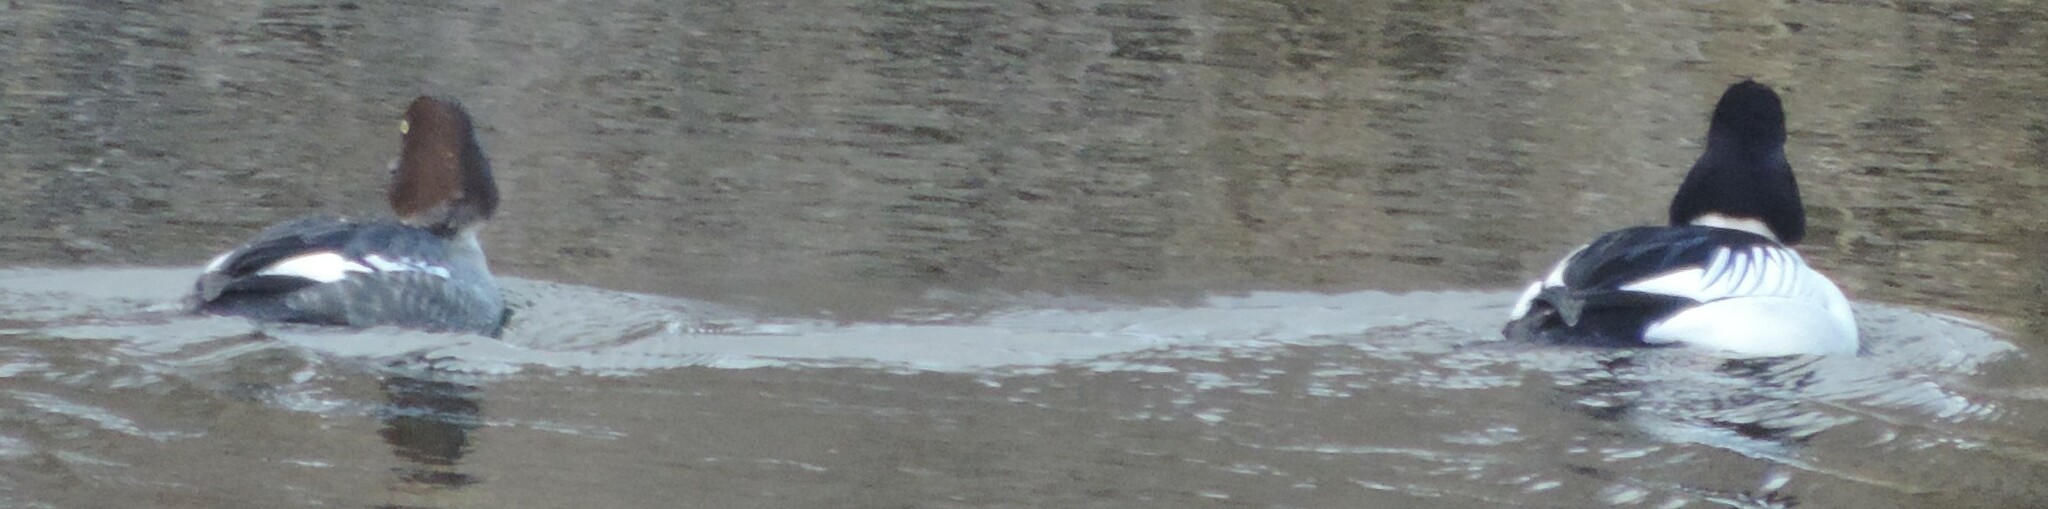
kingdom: Animalia
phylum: Chordata
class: Aves
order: Anseriformes
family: Anatidae
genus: Bucephala
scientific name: Bucephala clangula
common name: Common goldeneye
